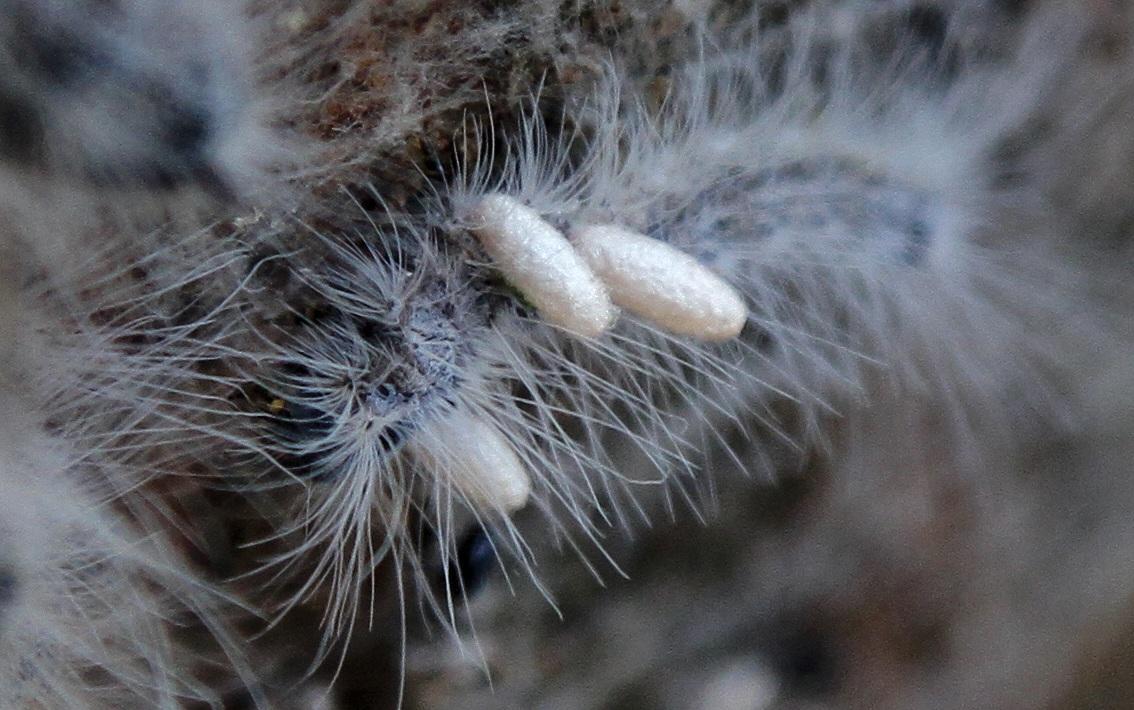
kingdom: Animalia
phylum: Arthropoda
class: Insecta
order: Lepidoptera
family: Lasiocampidae
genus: Anadiasa
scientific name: Anadiasa punctifascia
